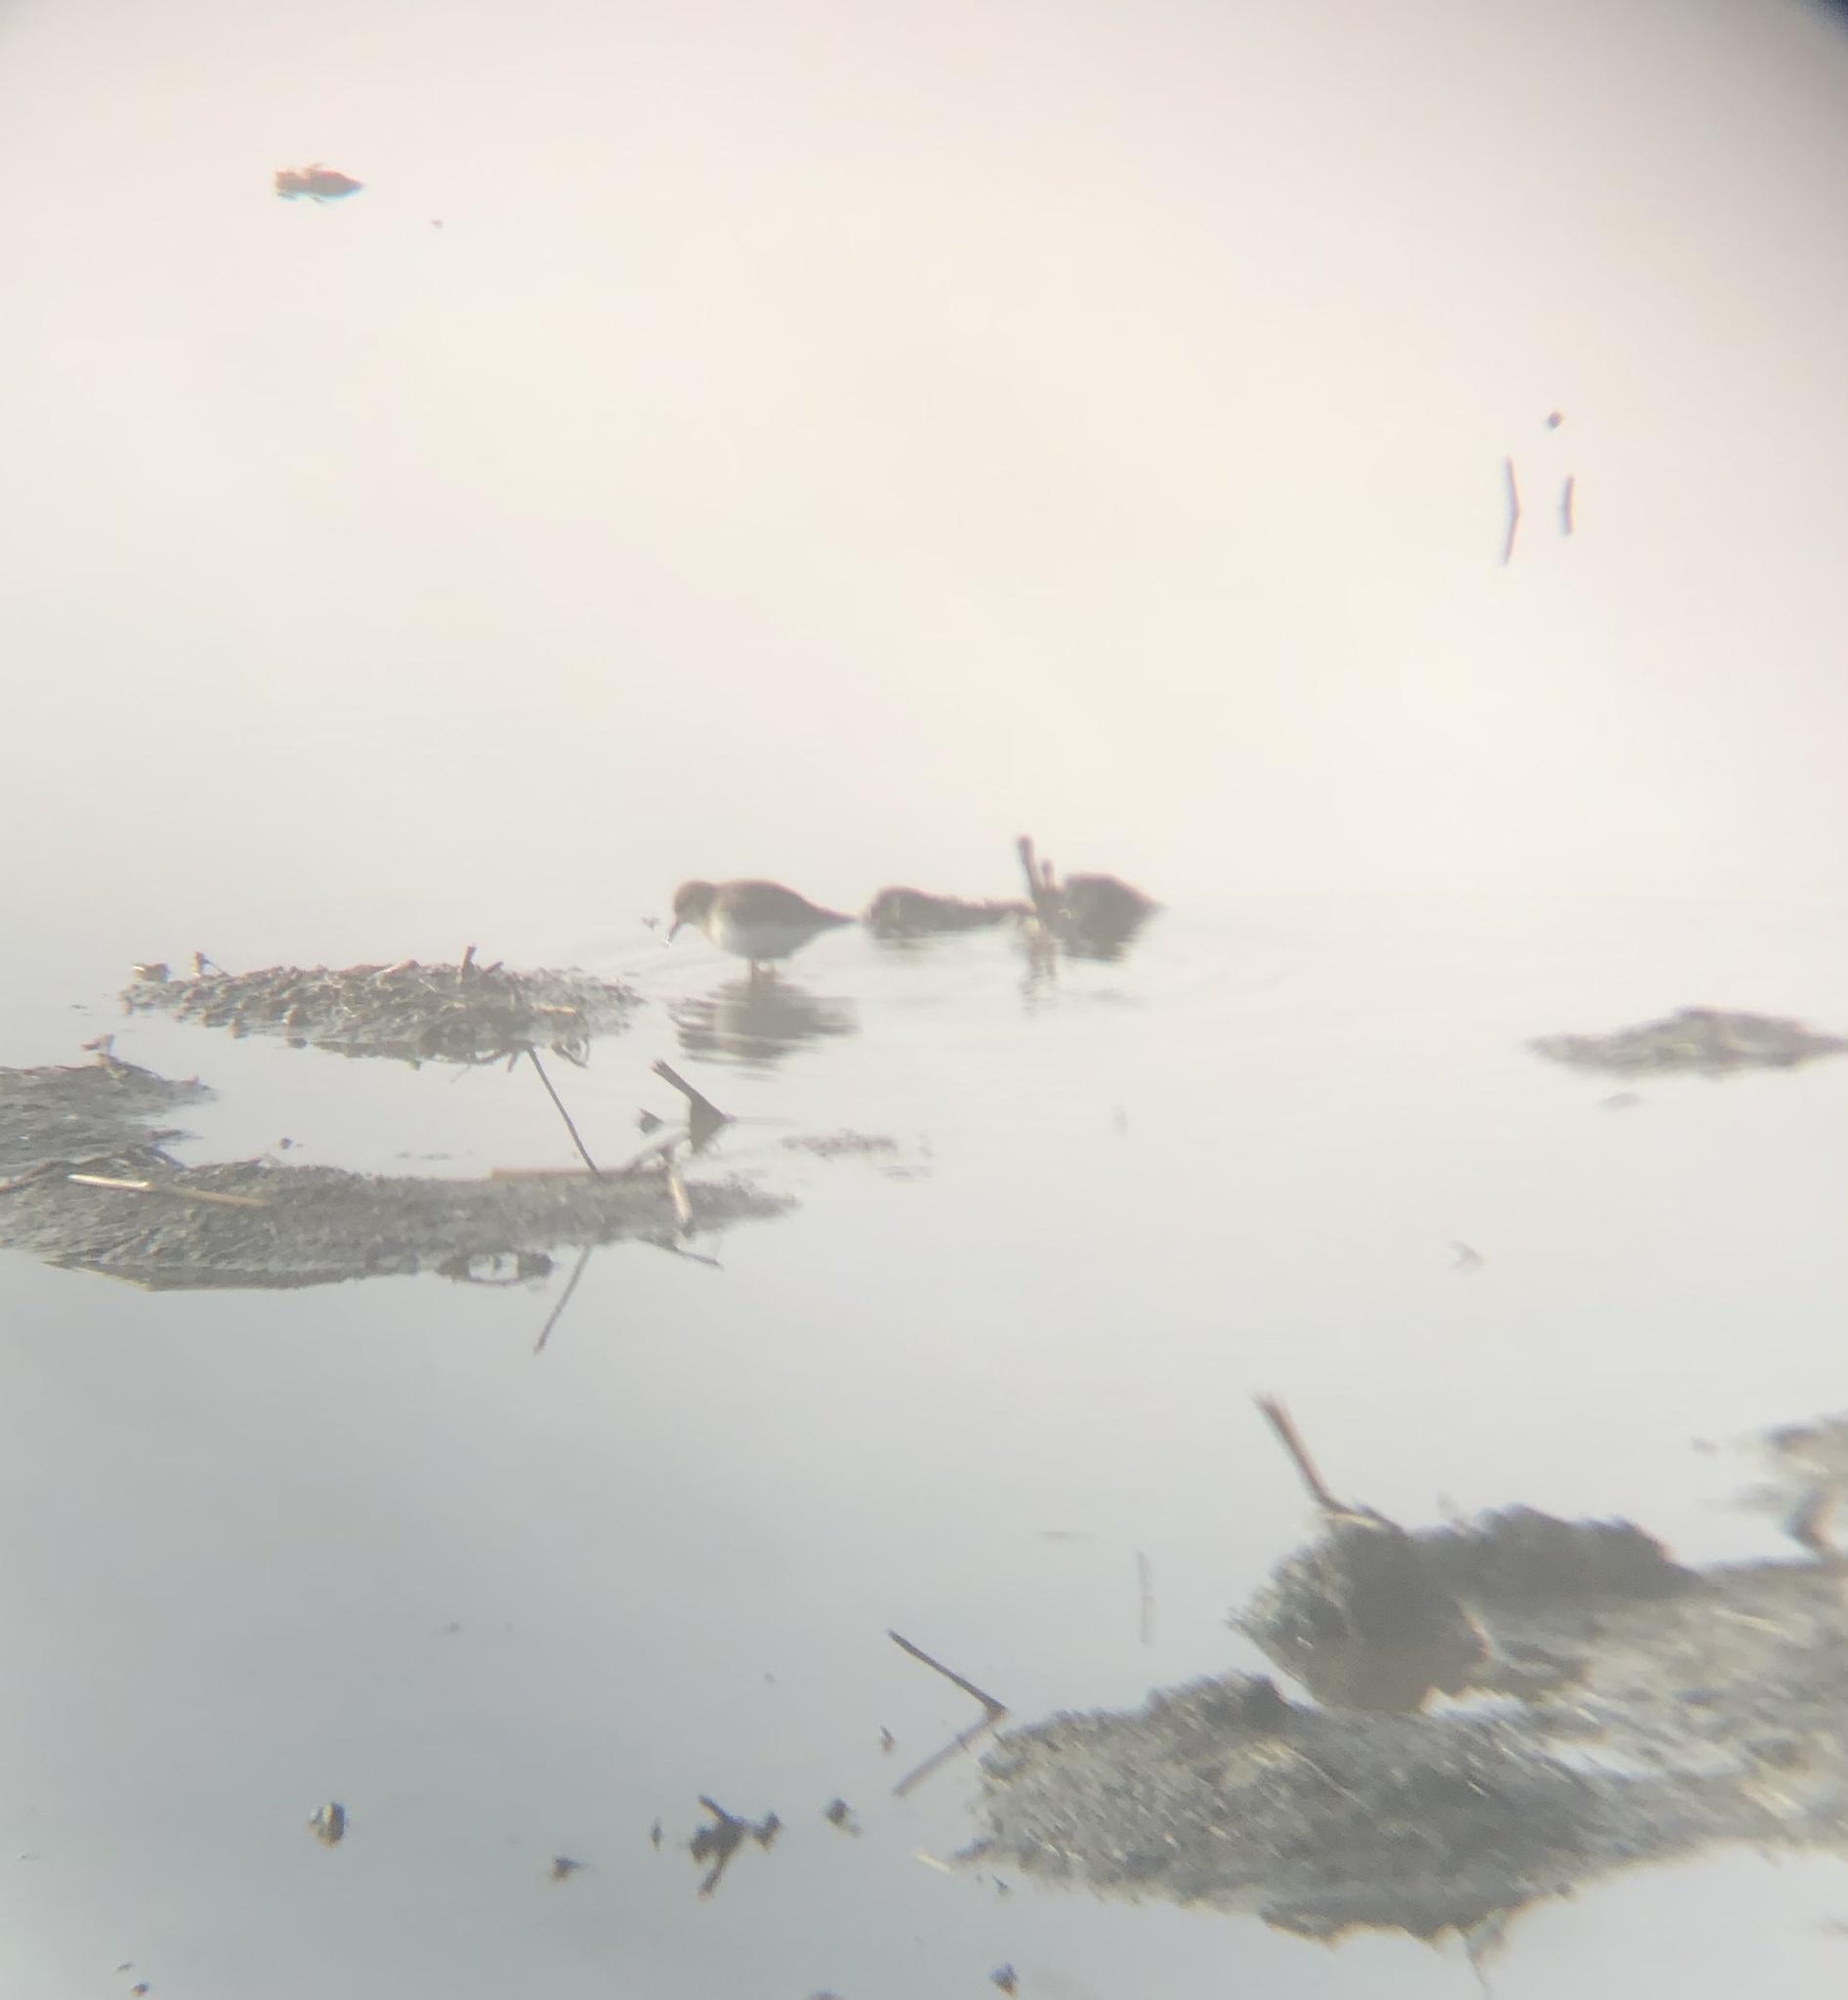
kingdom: Animalia
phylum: Chordata
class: Aves
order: Charadriiformes
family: Scolopacidae
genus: Calidris
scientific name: Calidris minutilla
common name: Least sandpiper
